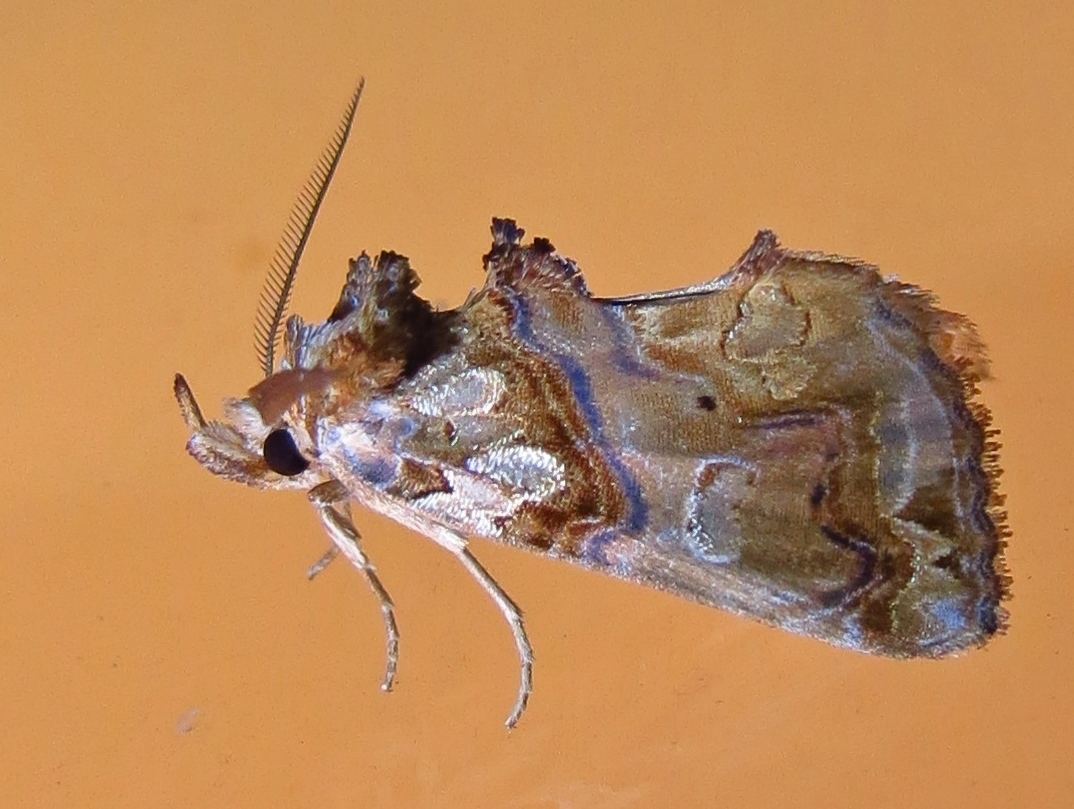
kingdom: Animalia
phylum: Arthropoda
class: Insecta
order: Lepidoptera
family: Erebidae
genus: Plusiodonta
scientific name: Plusiodonta compressipalpis
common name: Moonseed moth
